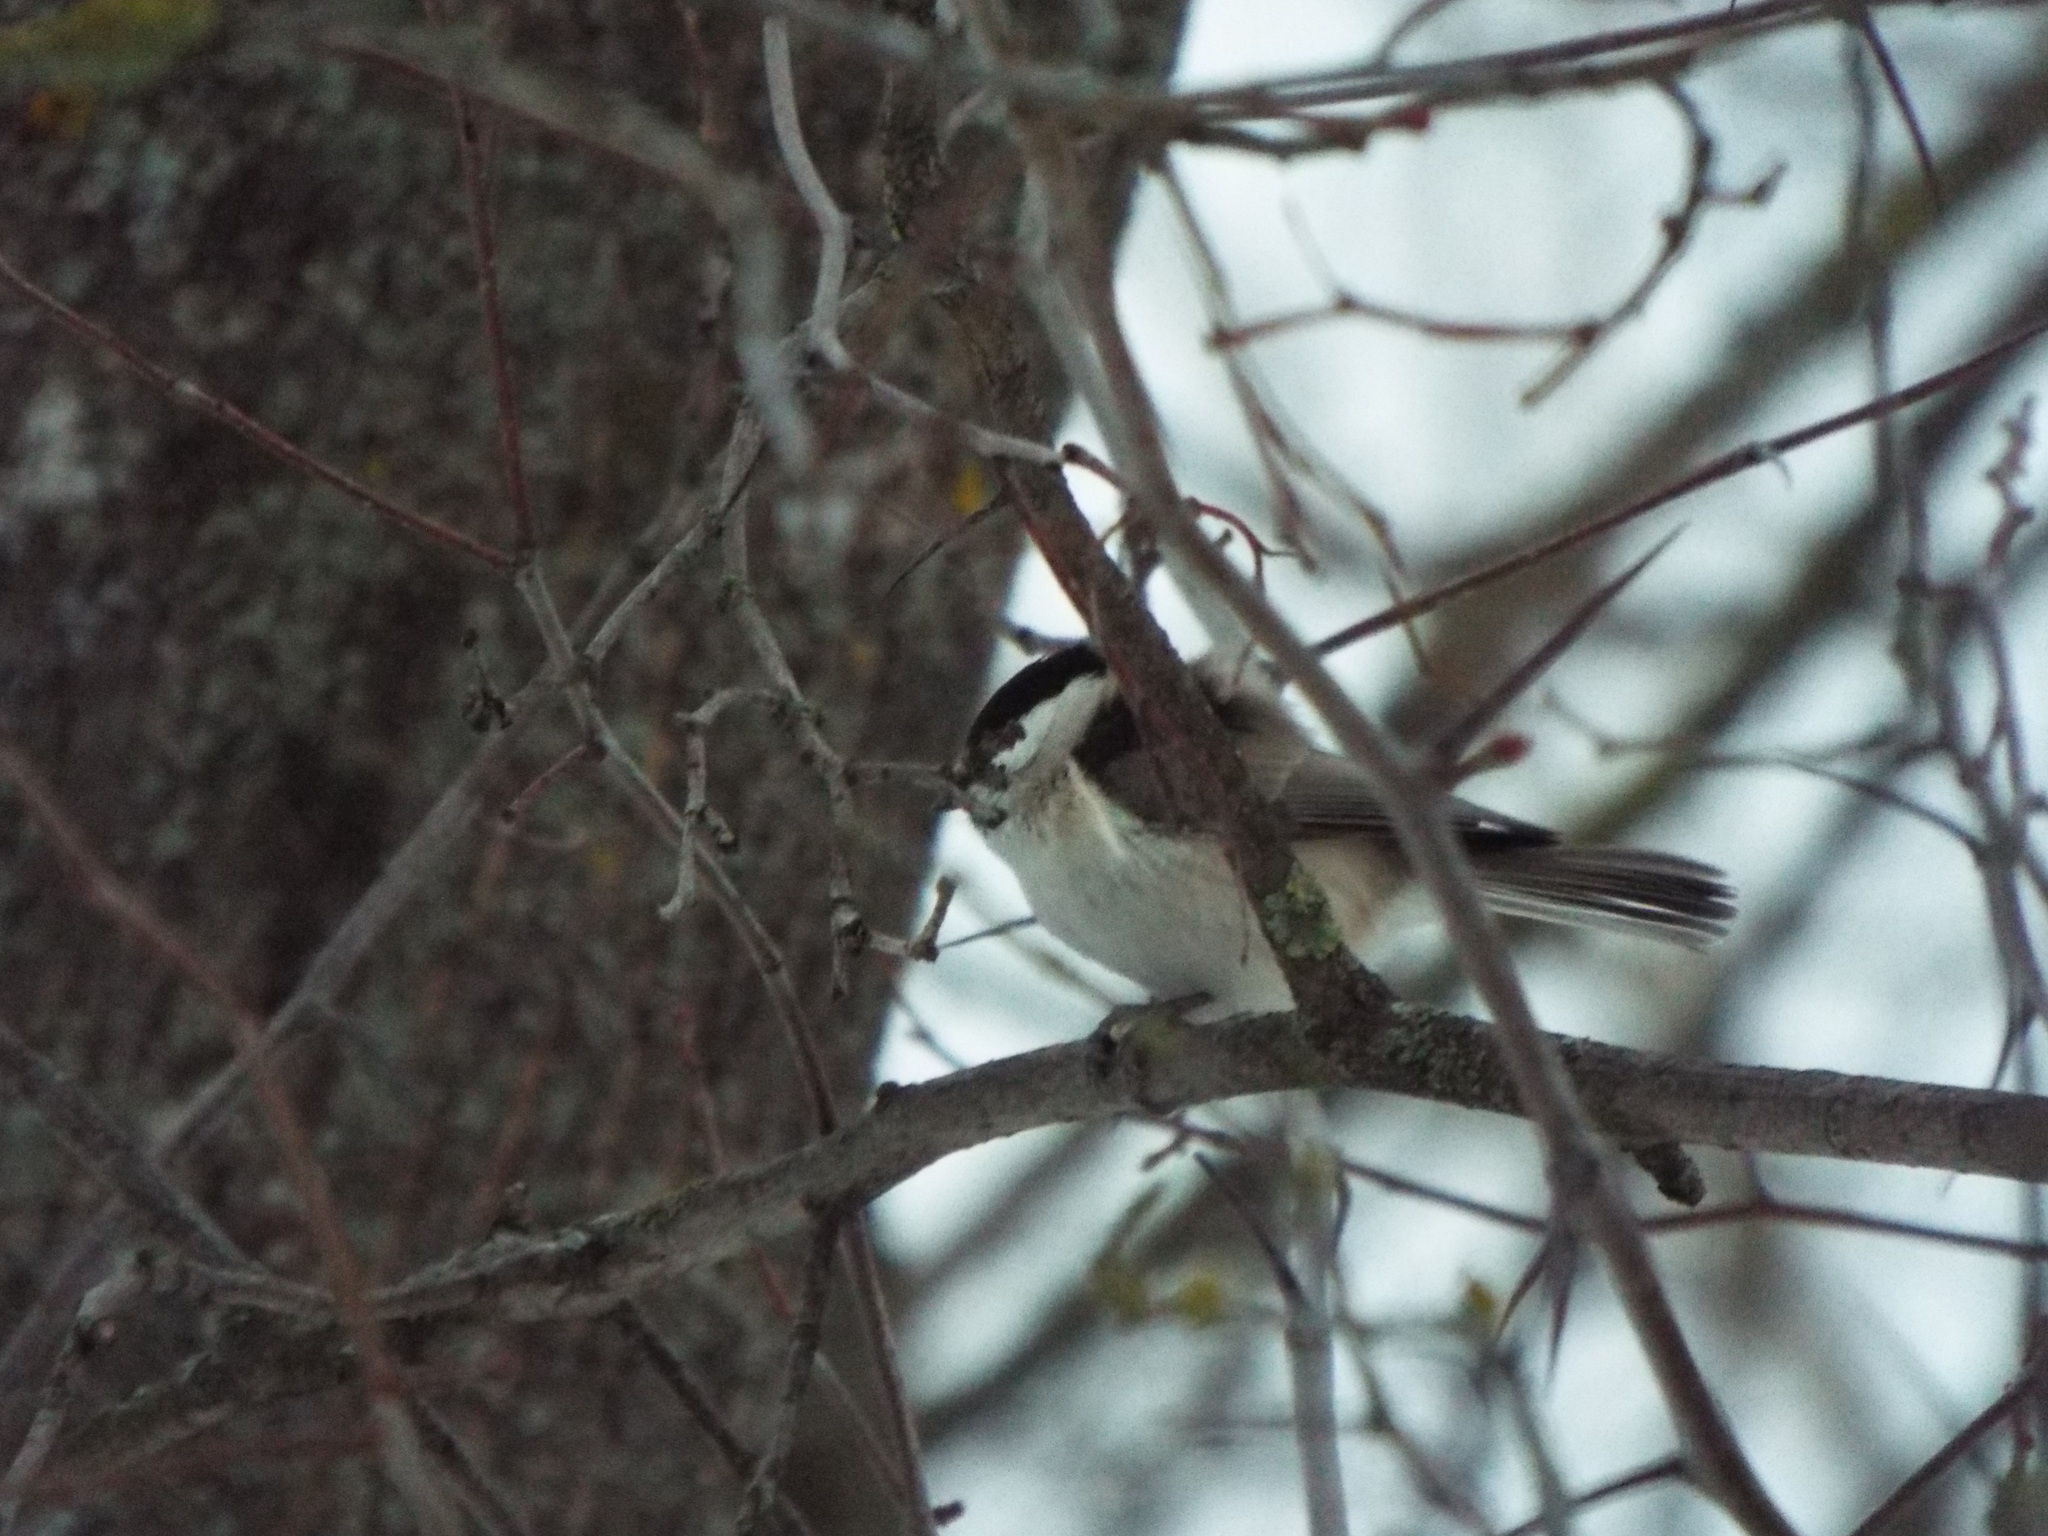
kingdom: Animalia
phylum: Chordata
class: Aves
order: Passeriformes
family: Paridae
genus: Poecile
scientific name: Poecile palustris
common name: Marsh tit
